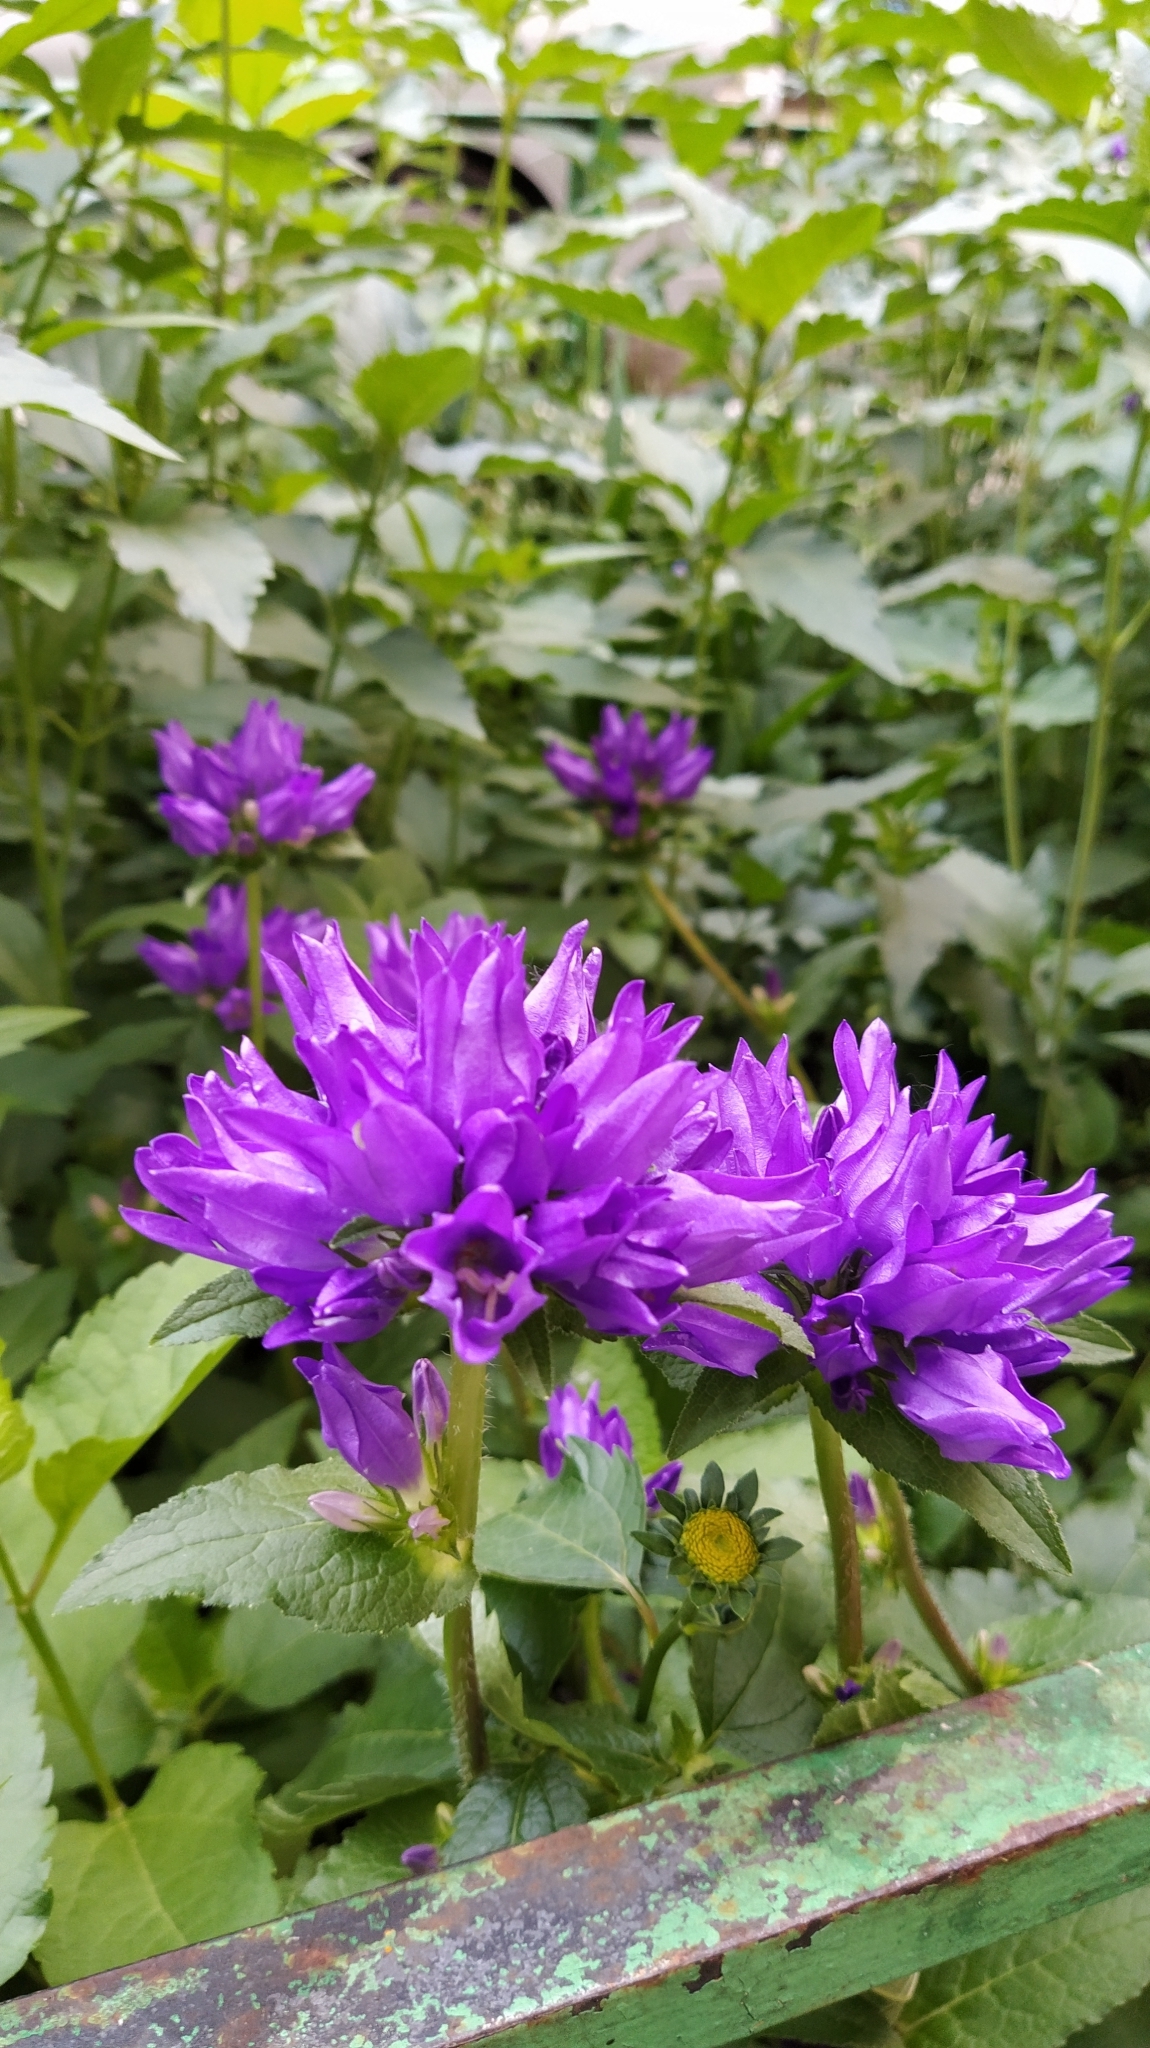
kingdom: Plantae
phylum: Tracheophyta
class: Magnoliopsida
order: Asterales
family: Campanulaceae
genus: Campanula
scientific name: Campanula glomerata
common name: Clustered bellflower
